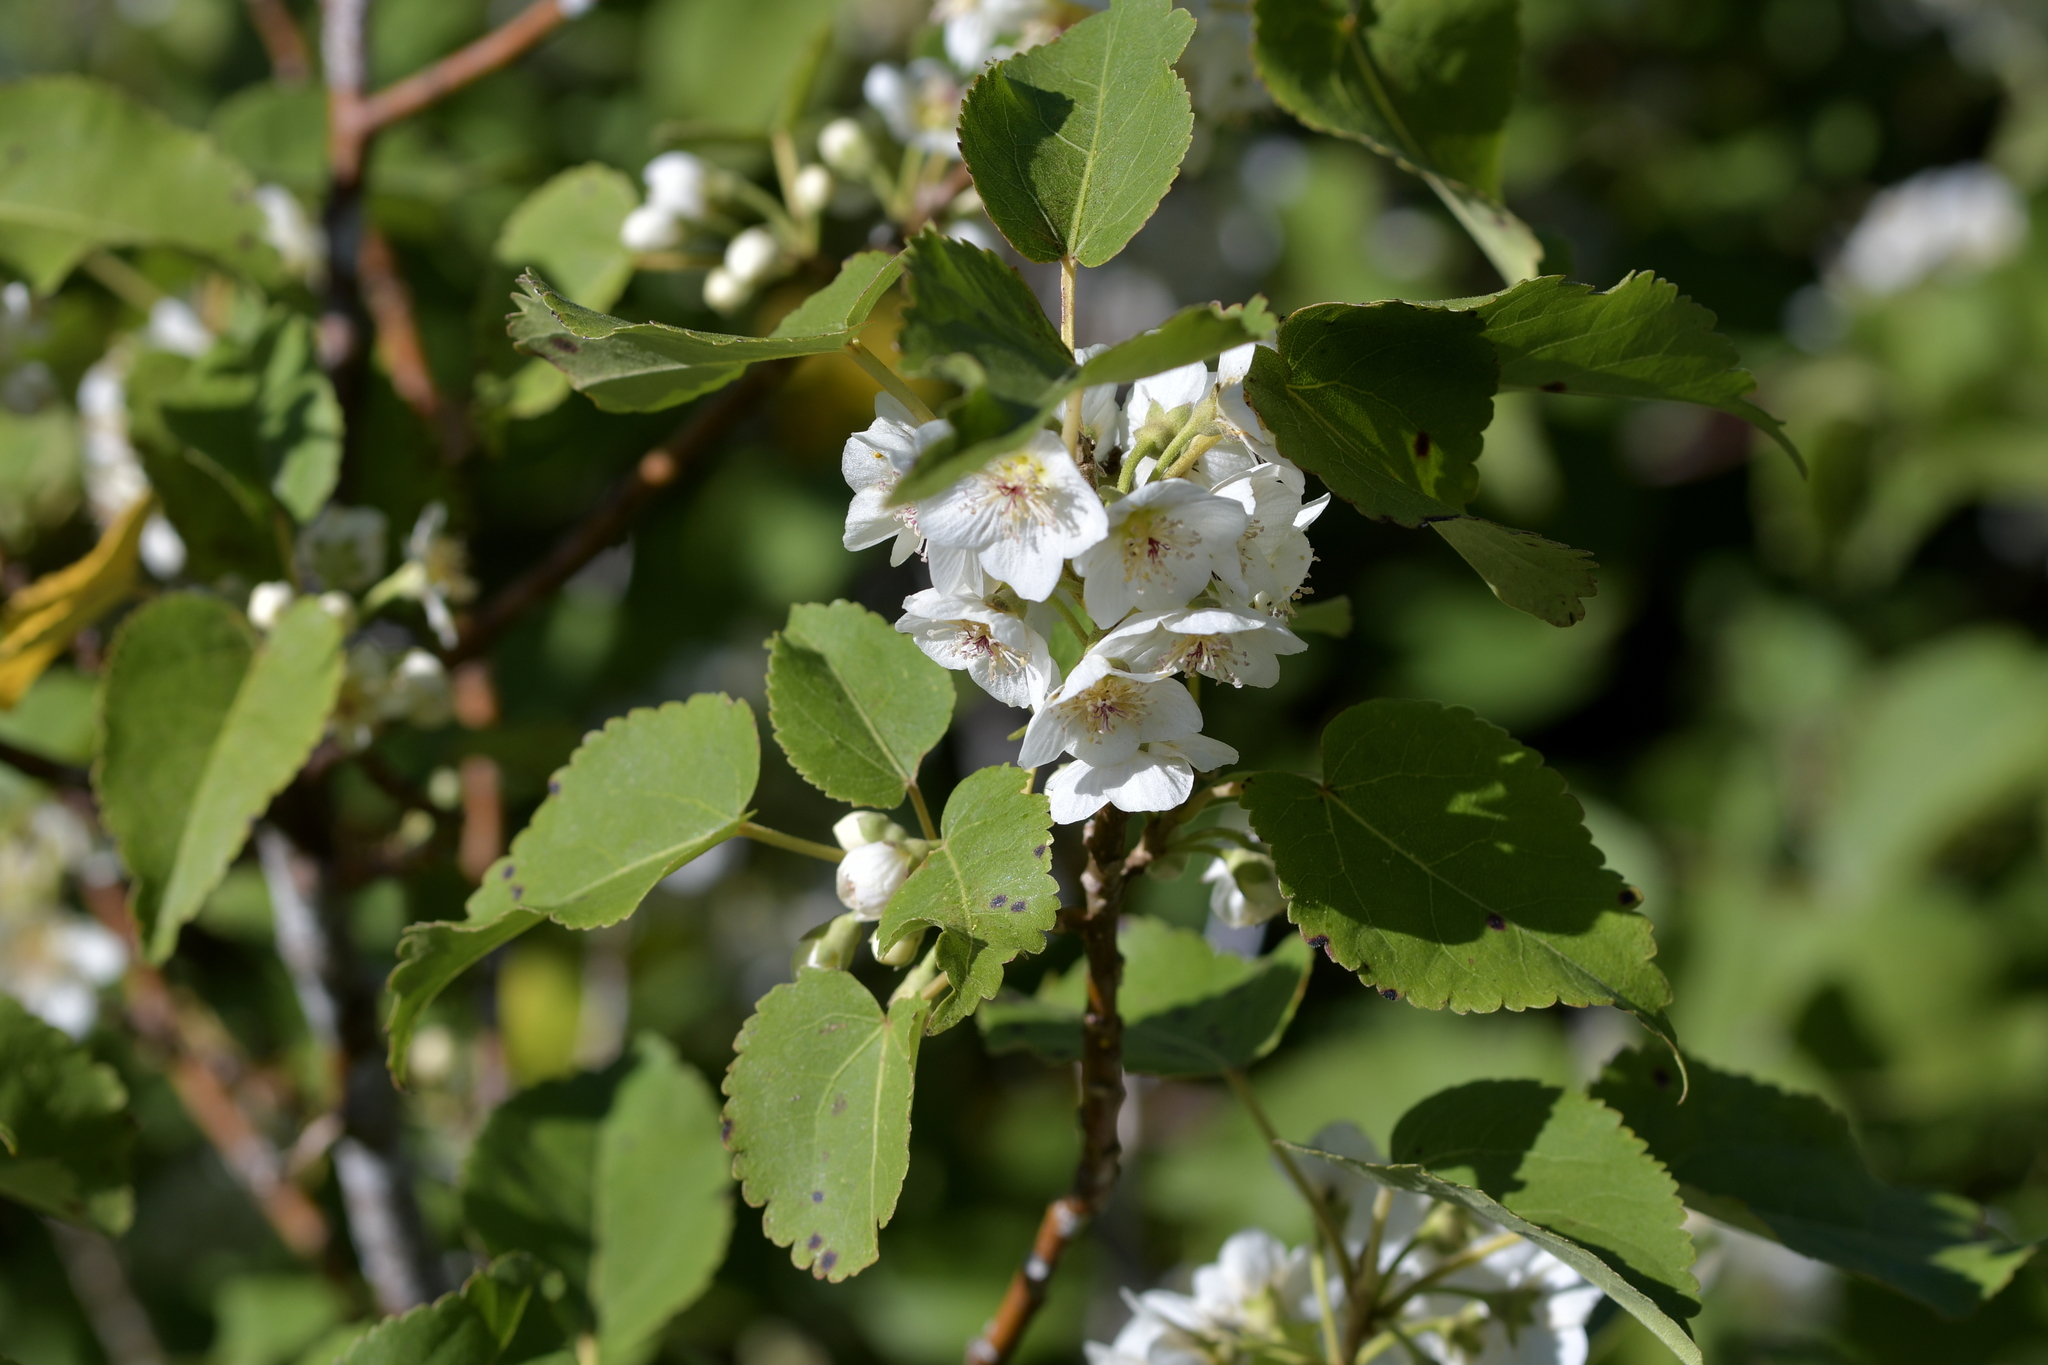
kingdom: Plantae
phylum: Tracheophyta
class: Magnoliopsida
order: Malvales
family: Malvaceae
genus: Hoheria
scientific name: Hoheria glabrata
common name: Mountain-ribbon
